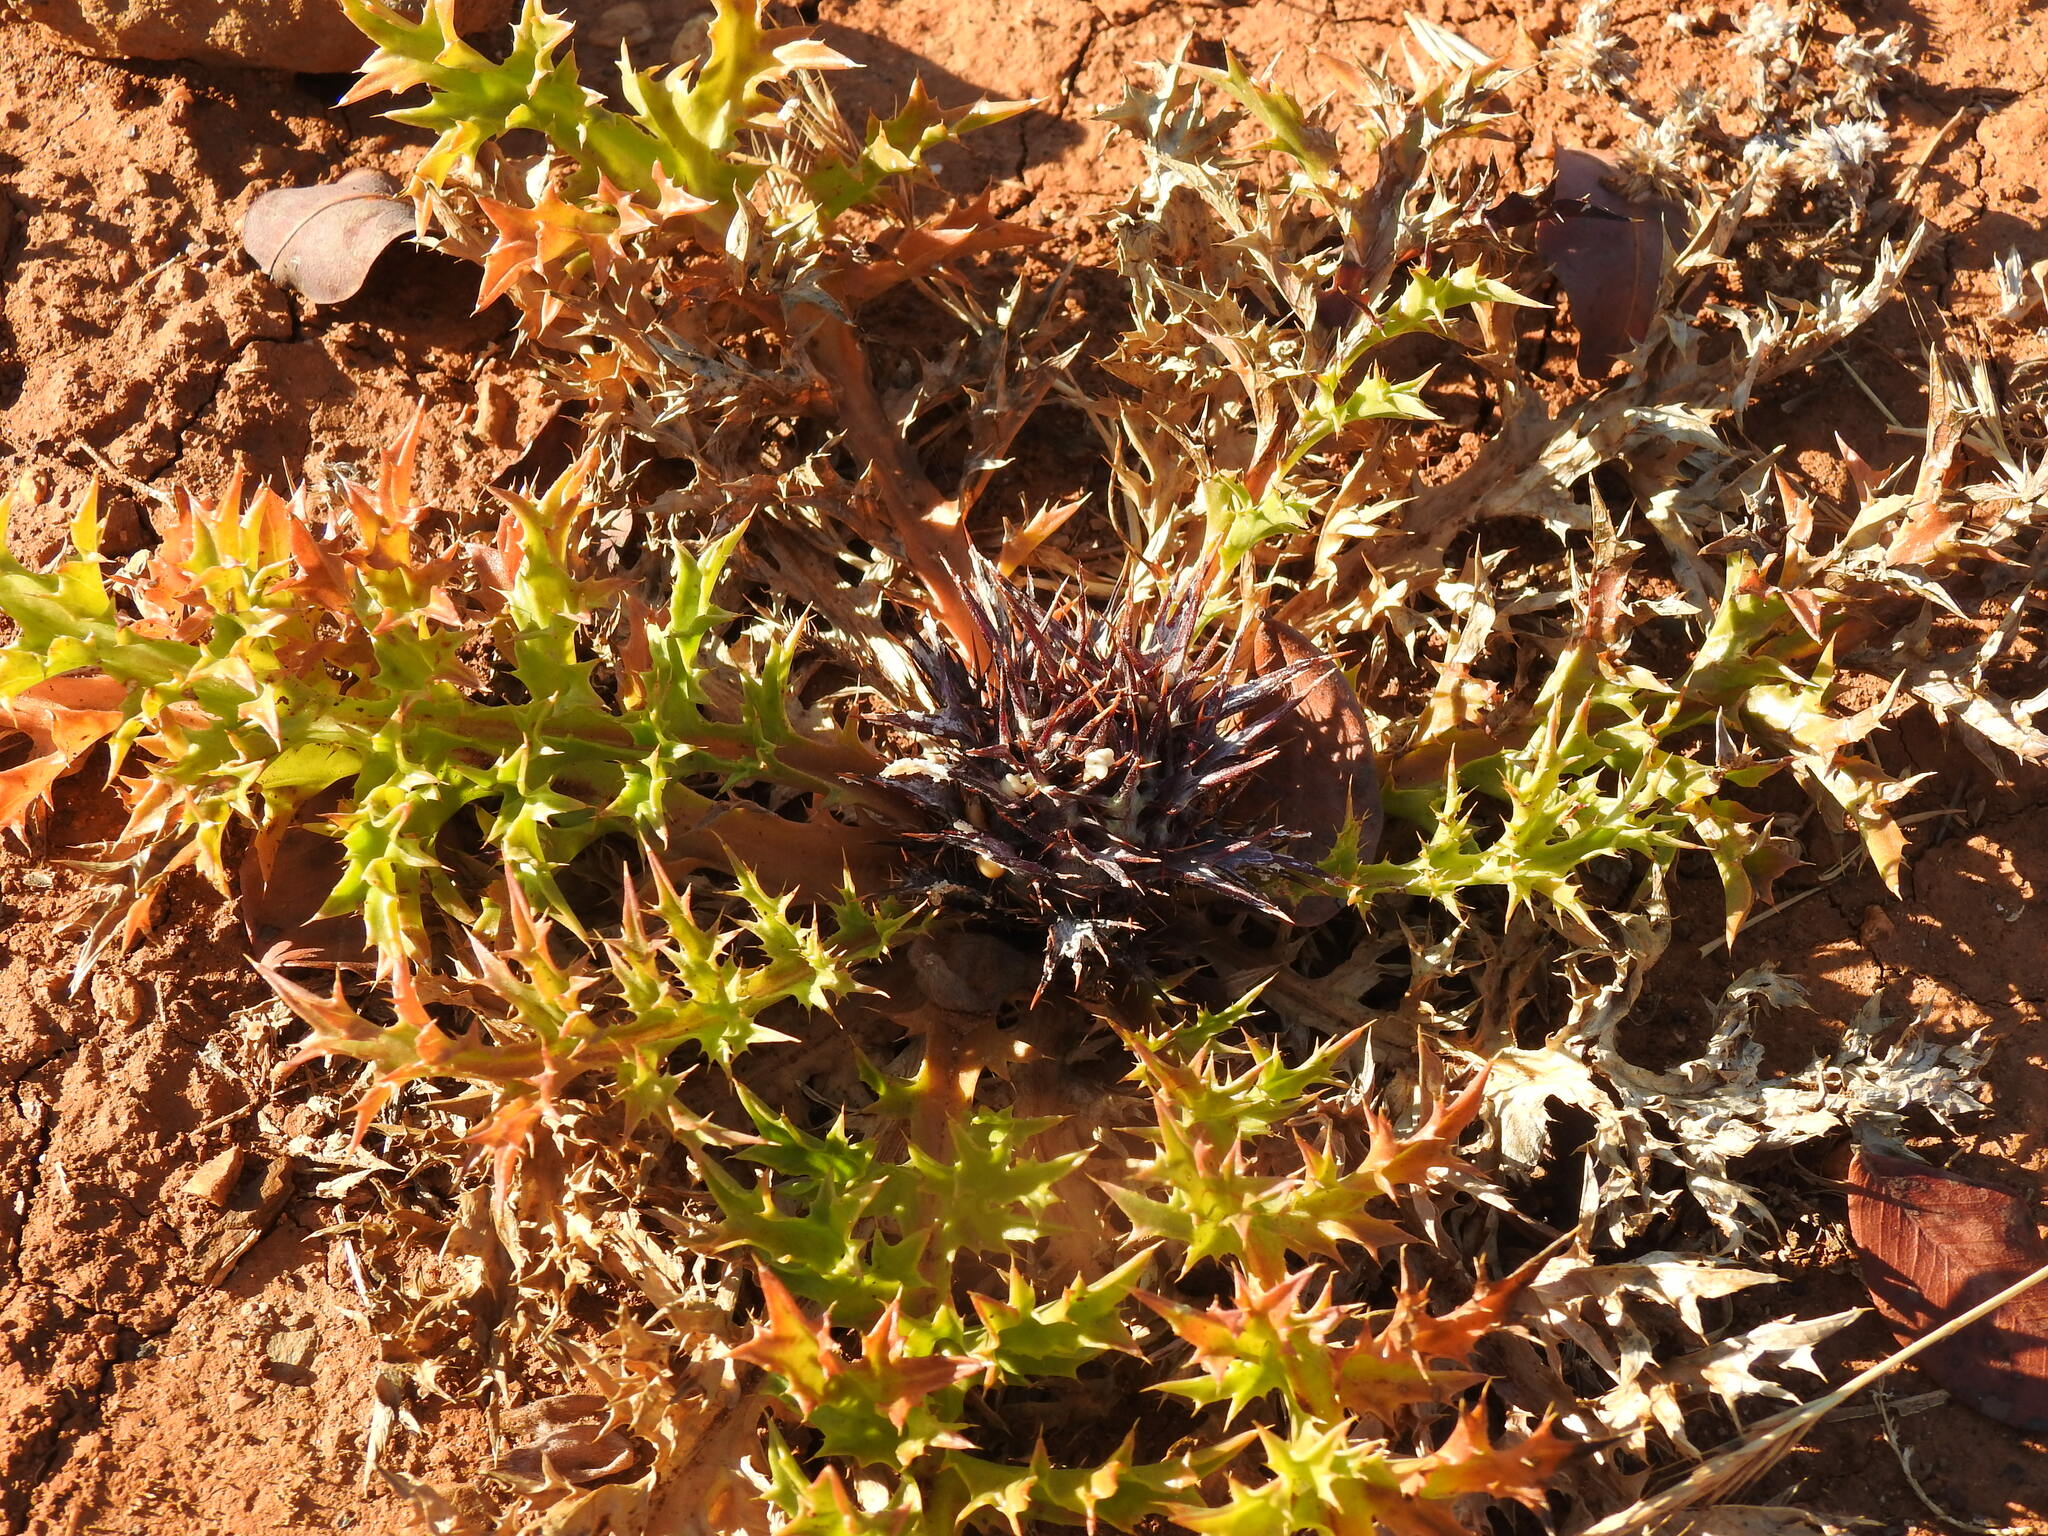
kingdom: Plantae
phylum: Tracheophyta
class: Magnoliopsida
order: Asterales
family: Asteraceae
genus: Chamaeleon
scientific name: Chamaeleon gummifer
